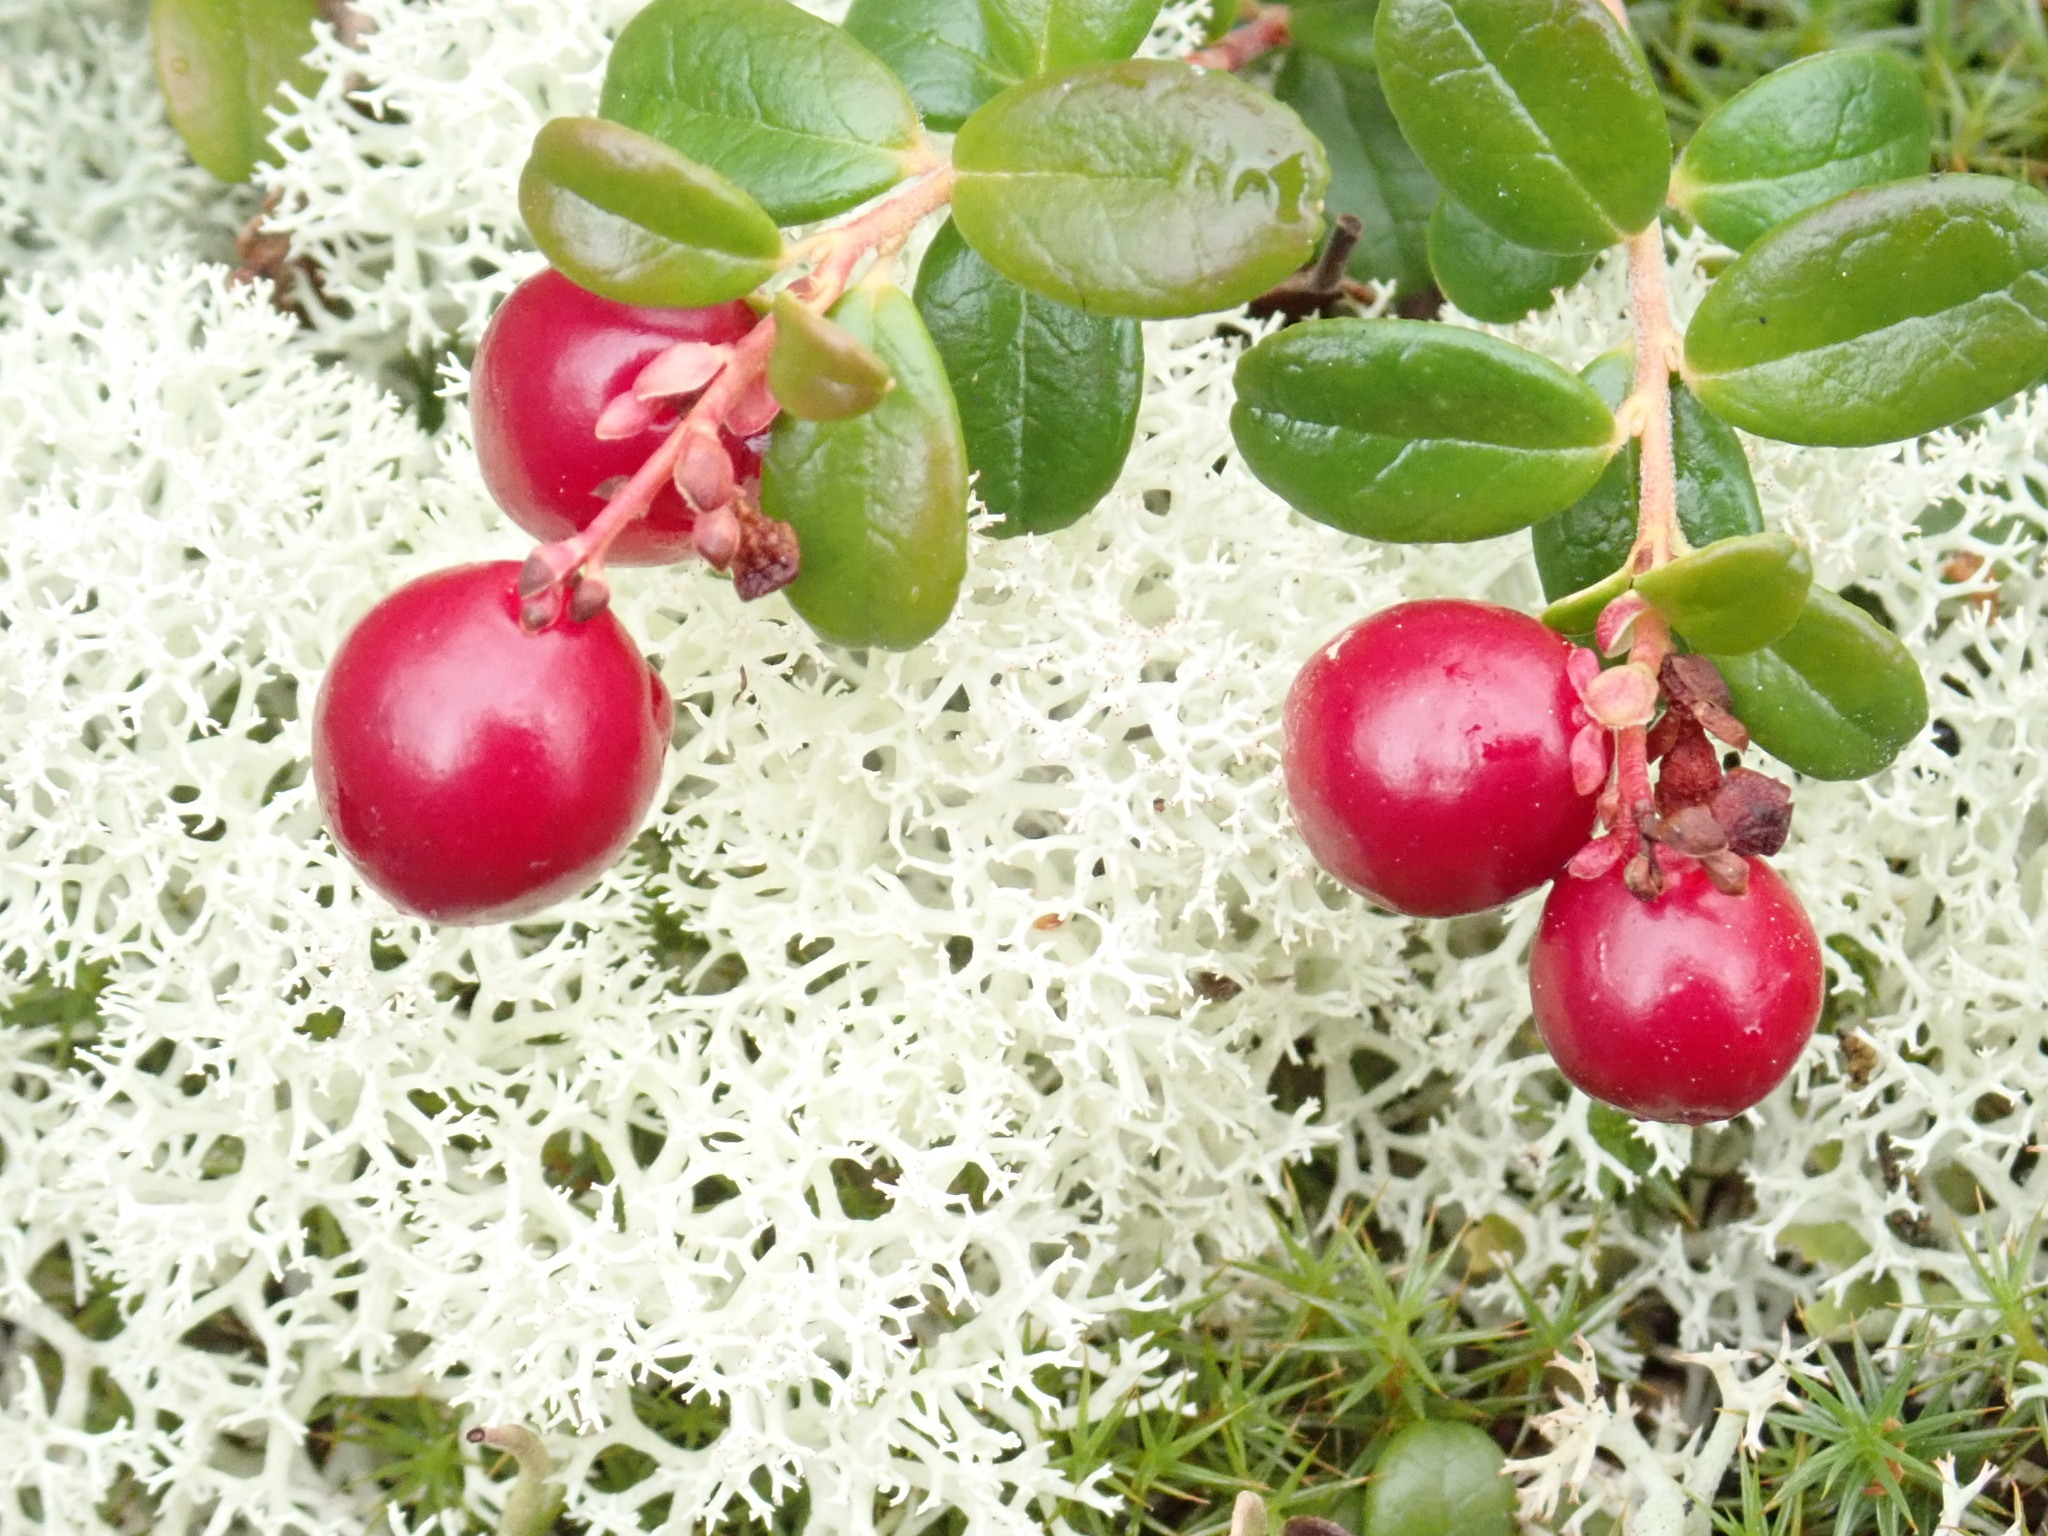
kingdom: Plantae
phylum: Tracheophyta
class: Magnoliopsida
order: Ericales
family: Ericaceae
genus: Vaccinium
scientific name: Vaccinium vitis-idaea
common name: Cowberry
